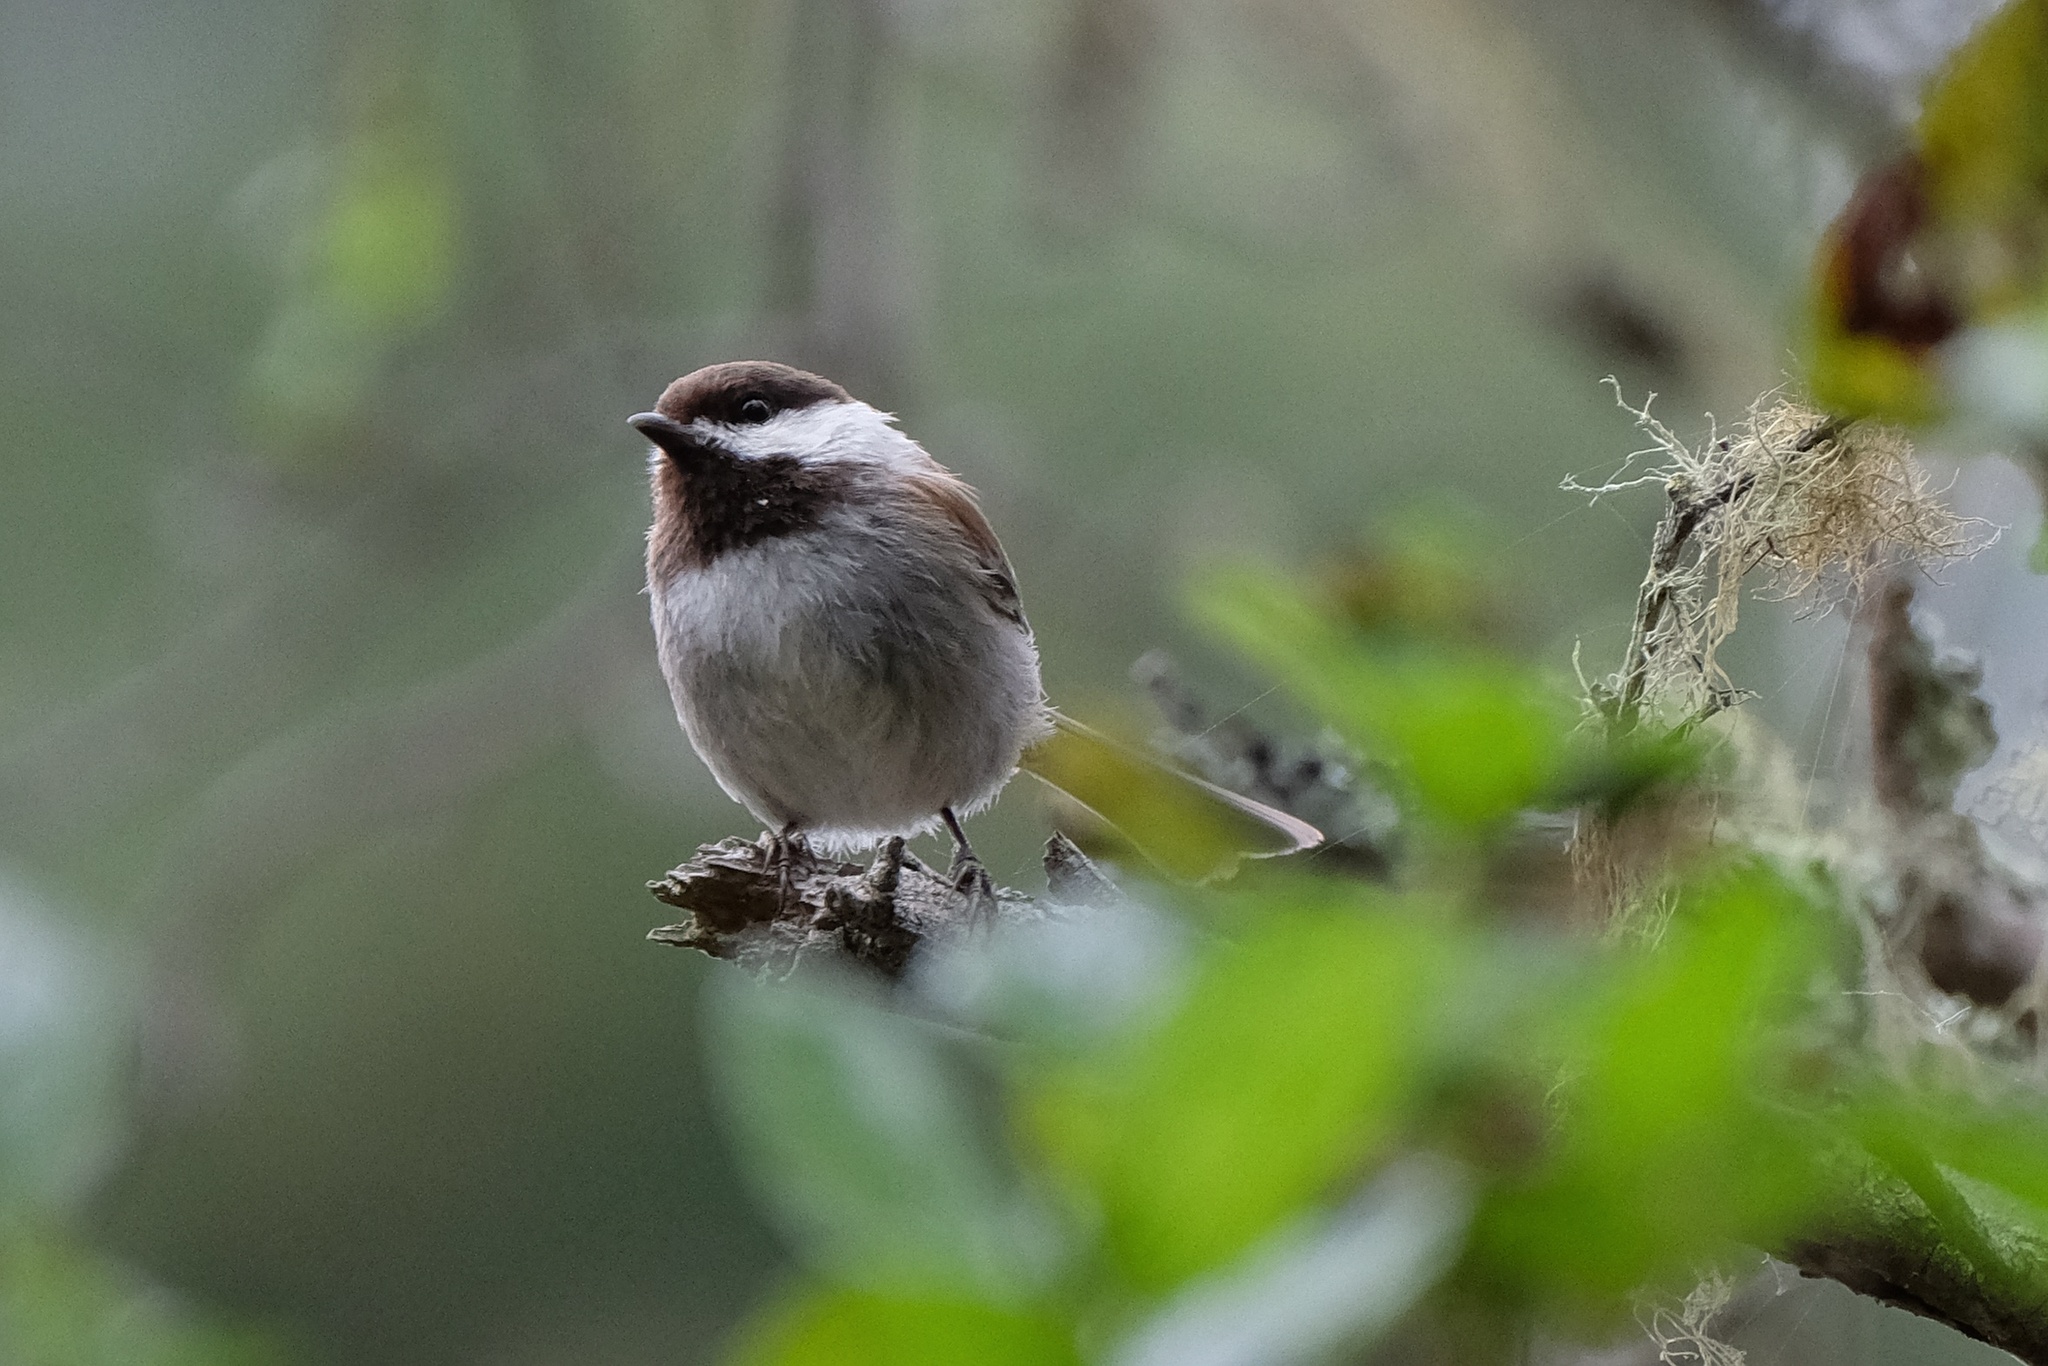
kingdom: Animalia
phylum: Chordata
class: Aves
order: Passeriformes
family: Paridae
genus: Poecile
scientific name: Poecile rufescens
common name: Chestnut-backed chickadee
